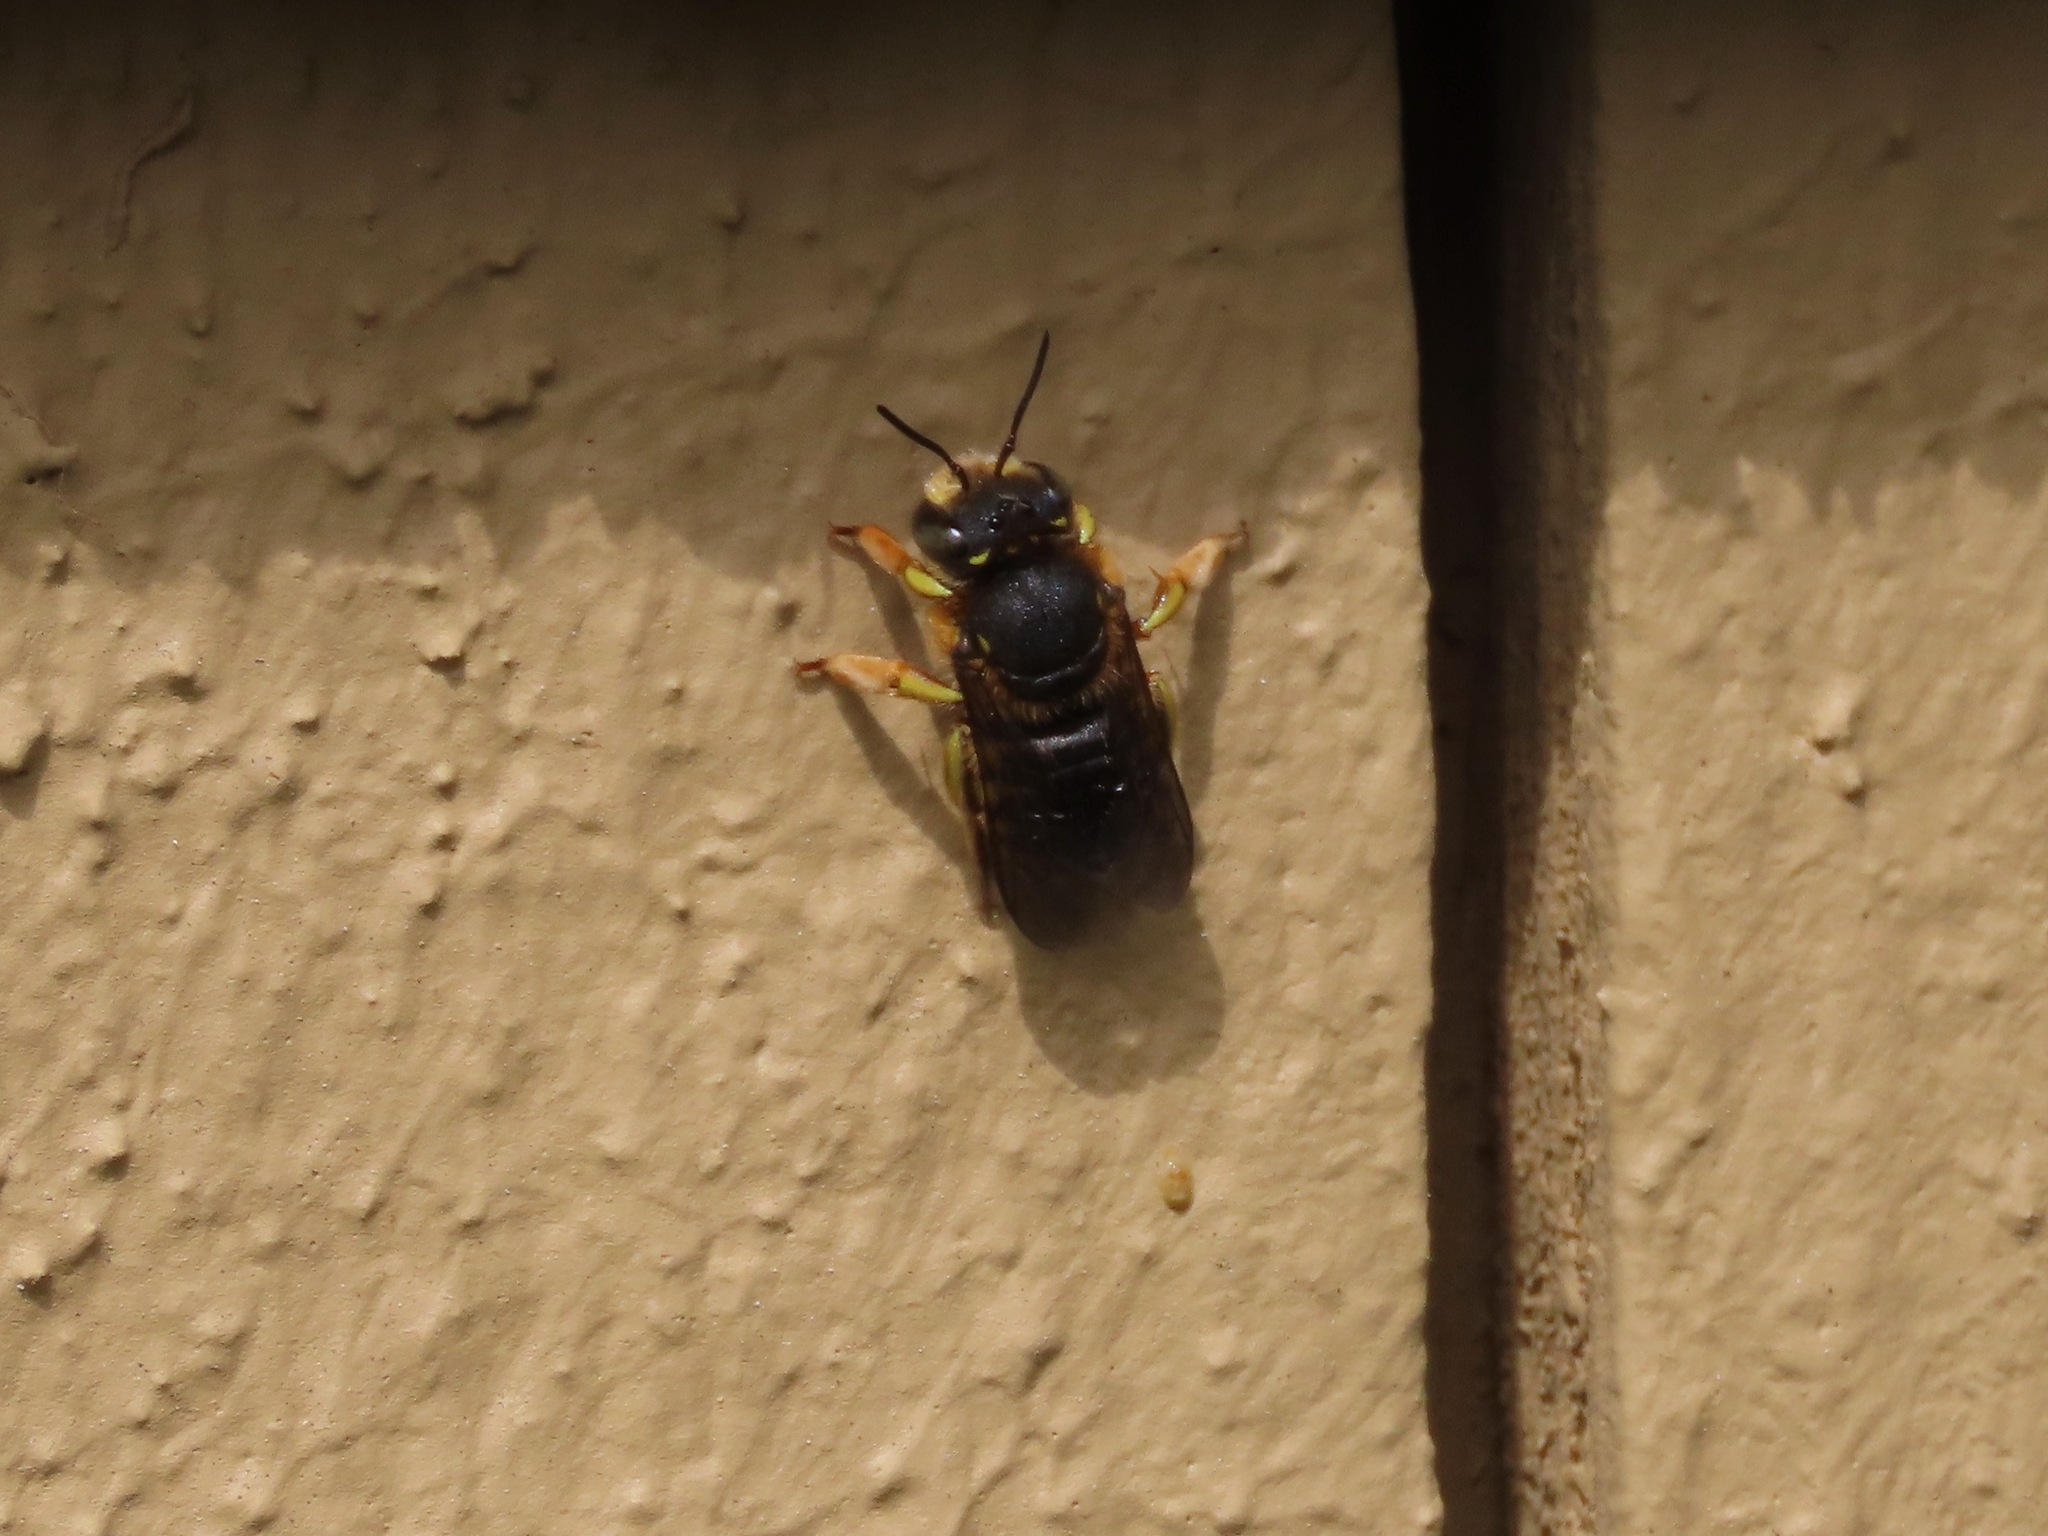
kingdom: Animalia
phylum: Arthropoda
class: Insecta
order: Hymenoptera
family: Megachilidae
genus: Anthidium
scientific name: Anthidium manicatum
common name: Wool carder bee
